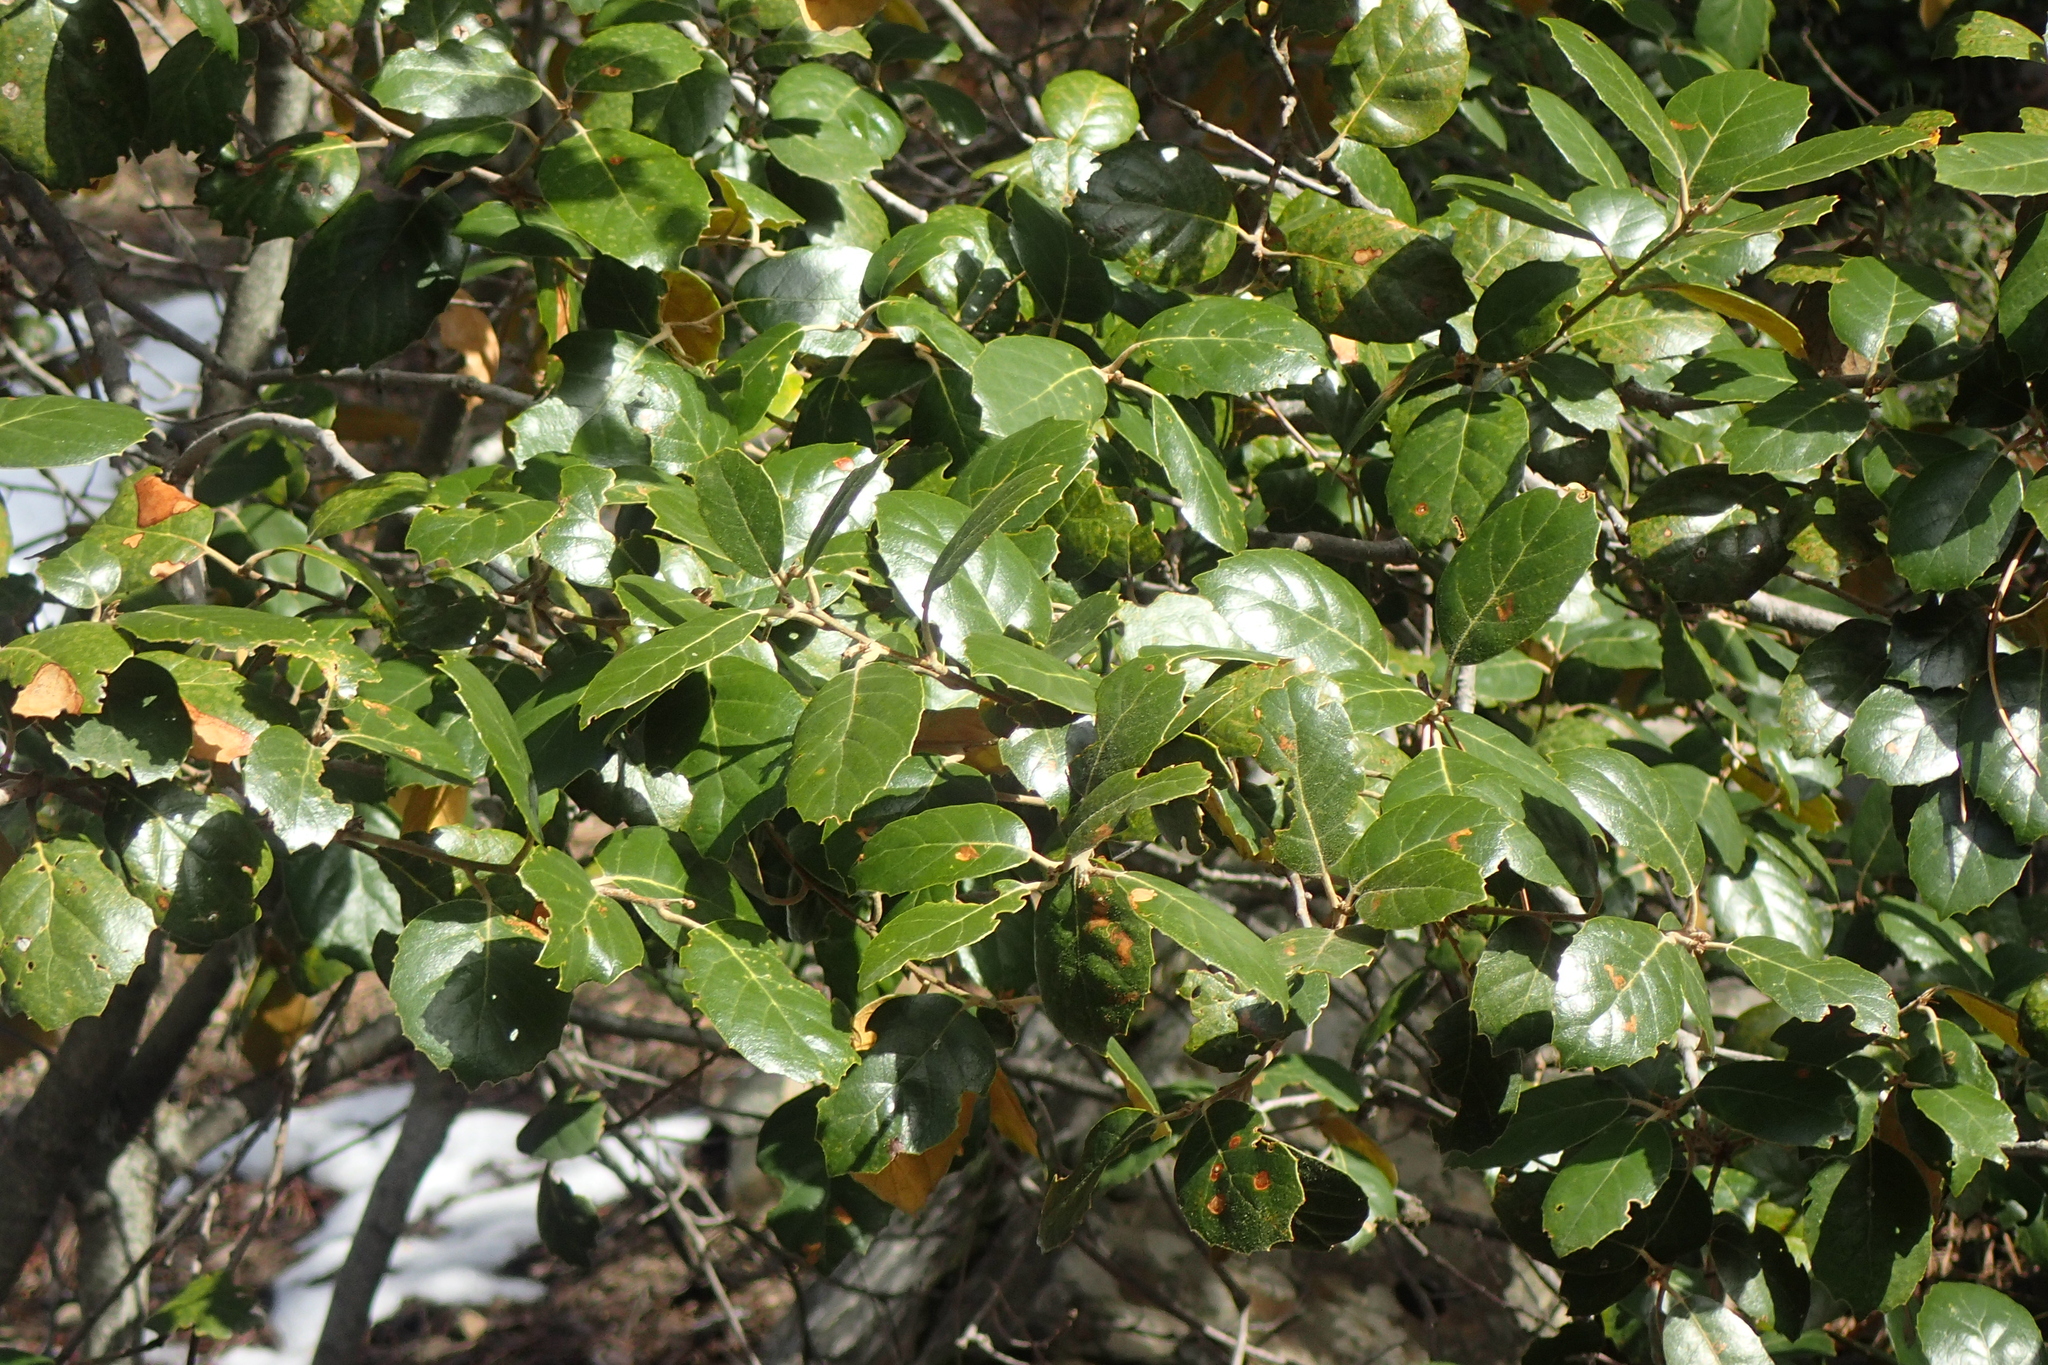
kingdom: Plantae
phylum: Tracheophyta
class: Magnoliopsida
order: Fagales
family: Fagaceae
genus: Quercus
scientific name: Quercus alnifolia
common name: Golden oak
